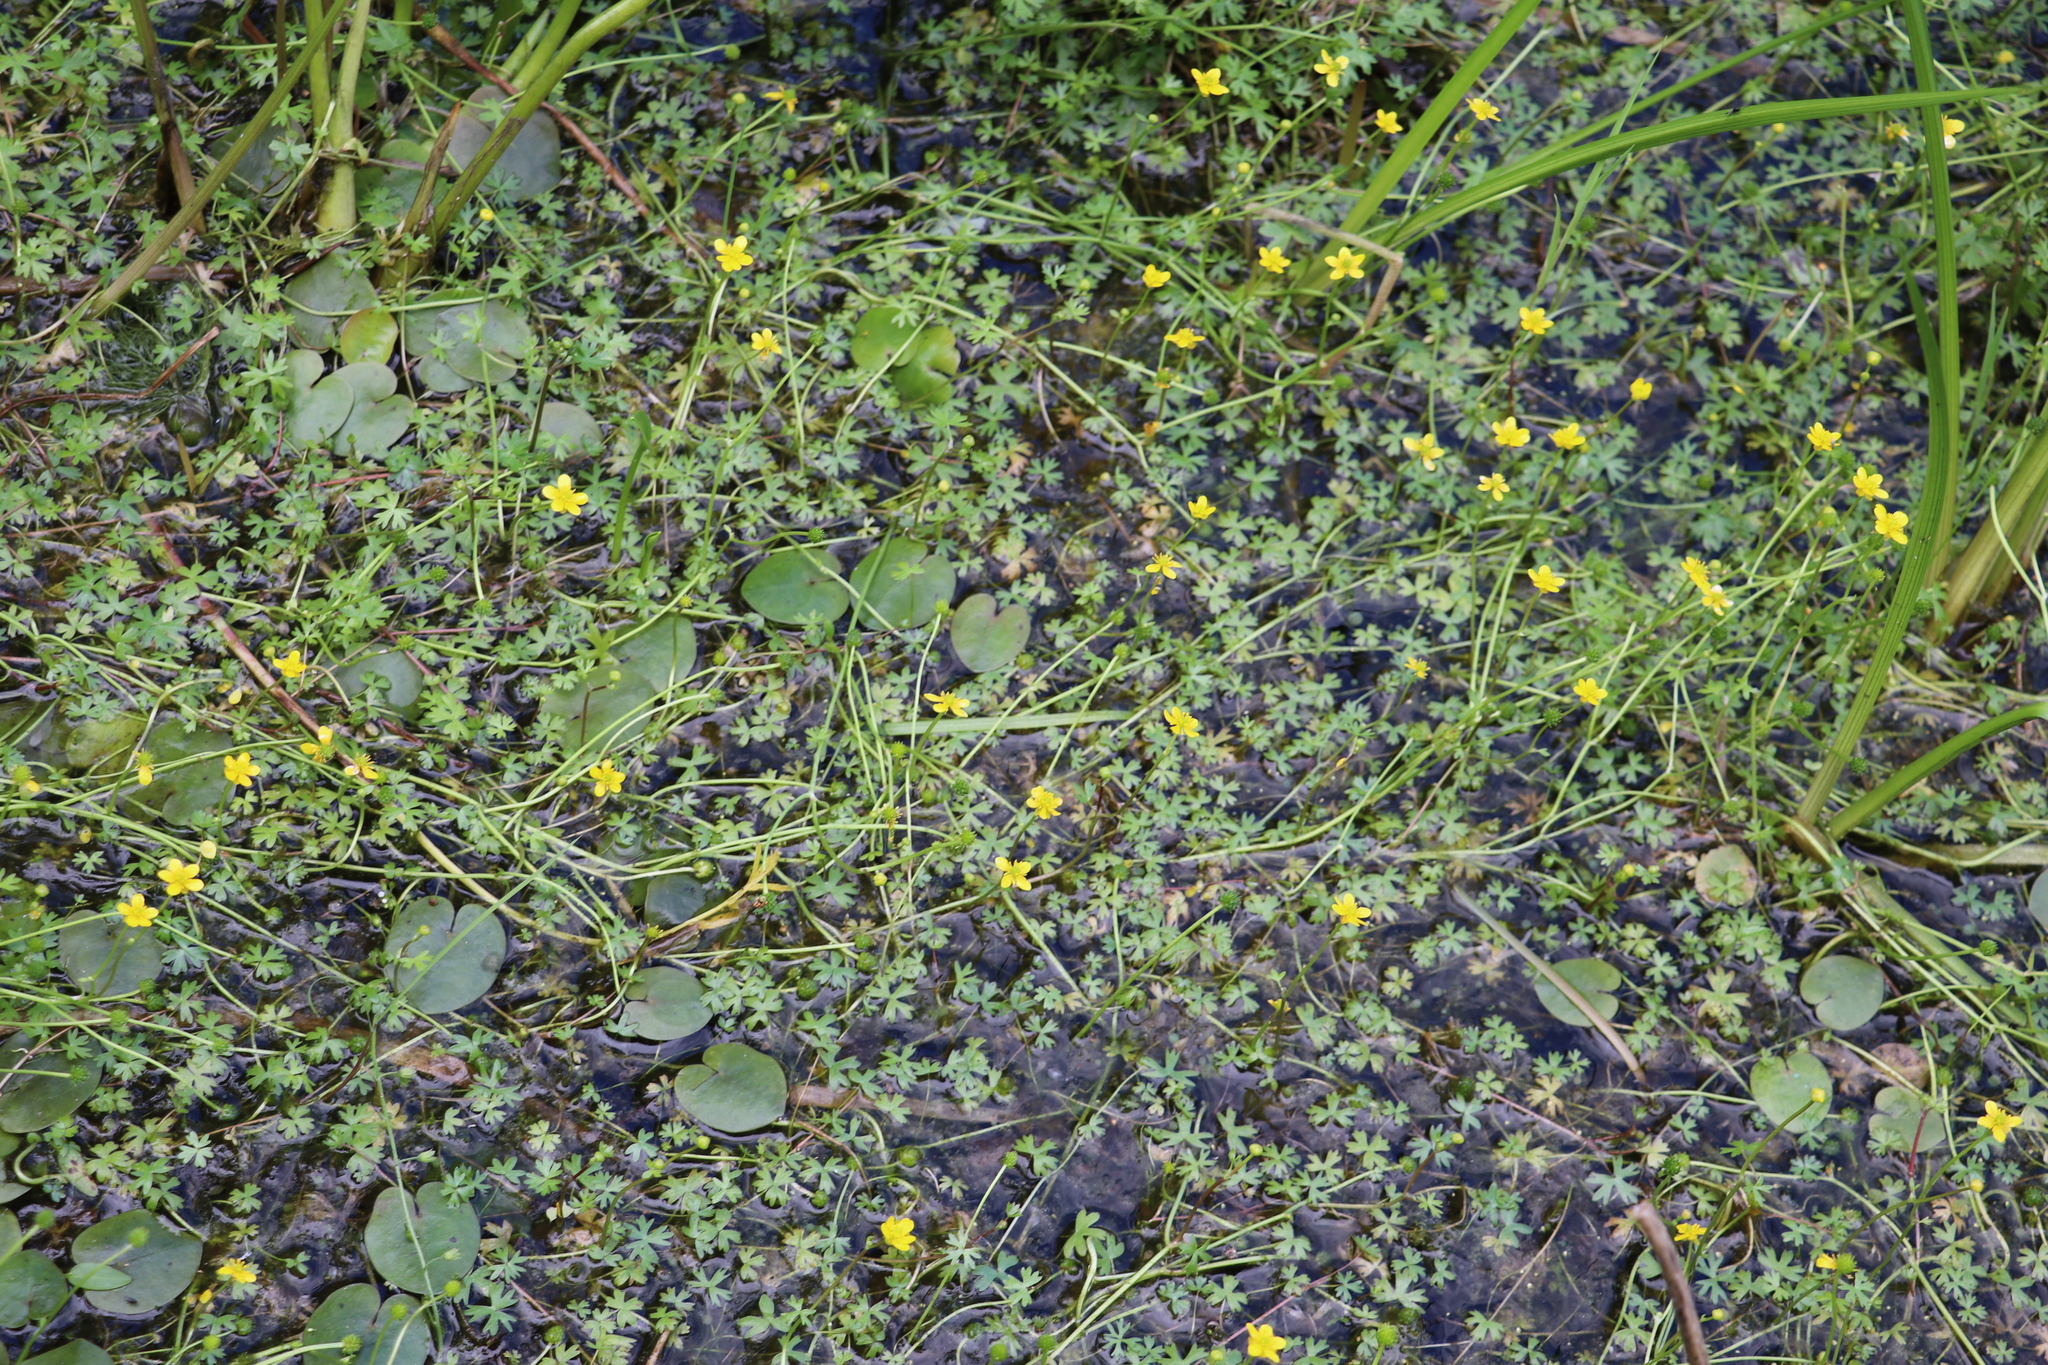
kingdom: Plantae
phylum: Tracheophyta
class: Magnoliopsida
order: Ranunculales
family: Ranunculaceae
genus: Ranunculus
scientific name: Ranunculus gmelinii
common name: Gmelin's buttercup
